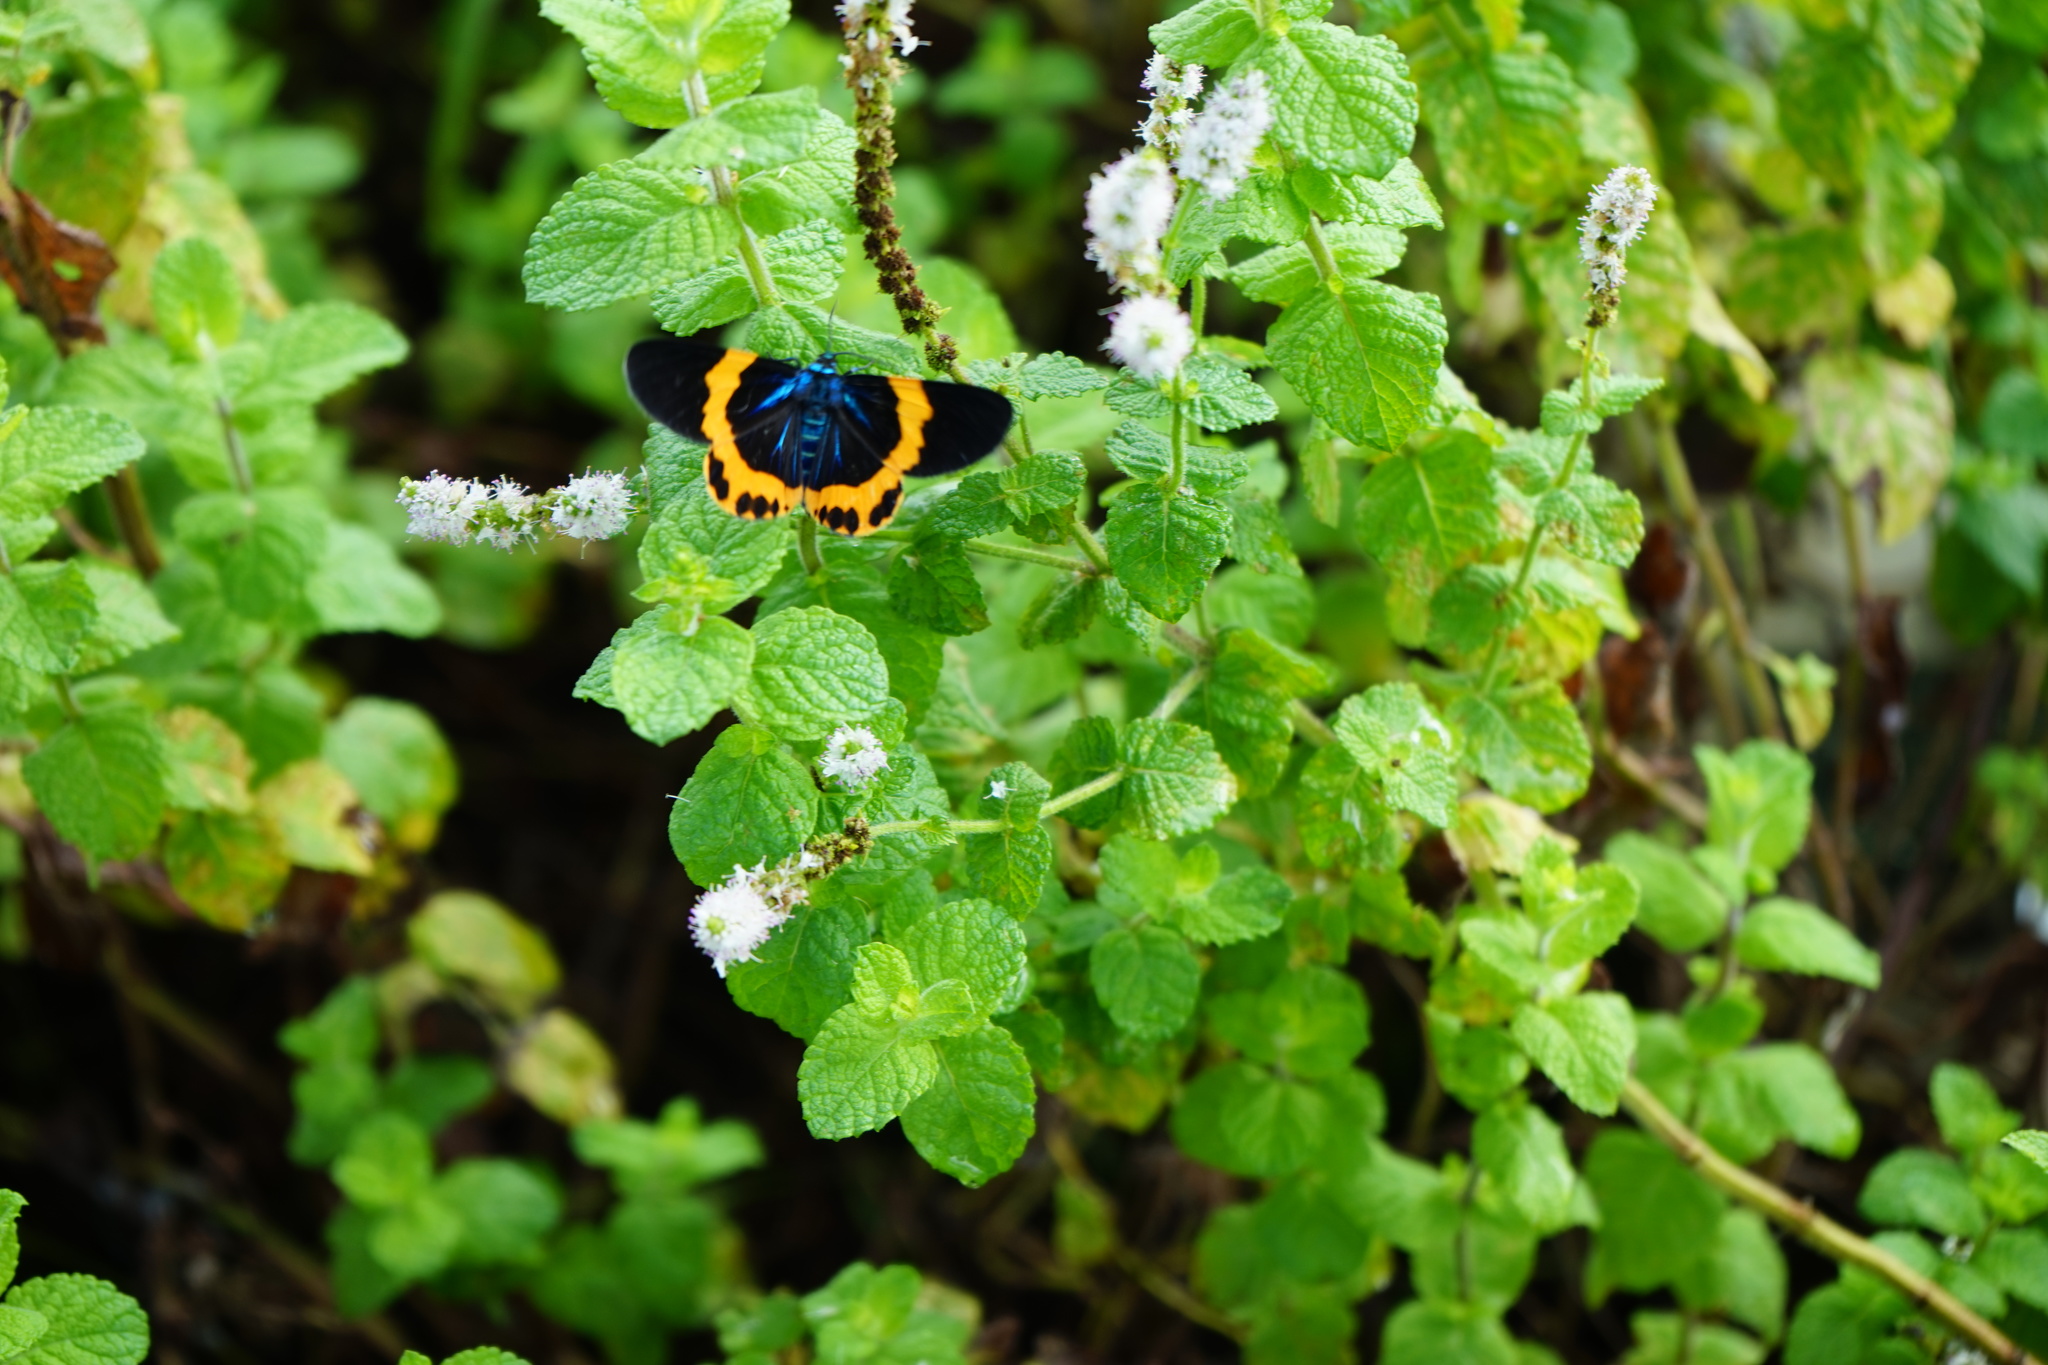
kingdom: Animalia
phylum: Arthropoda
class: Insecta
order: Lepidoptera
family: Geometridae
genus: Milionia
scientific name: Milionia basalis
